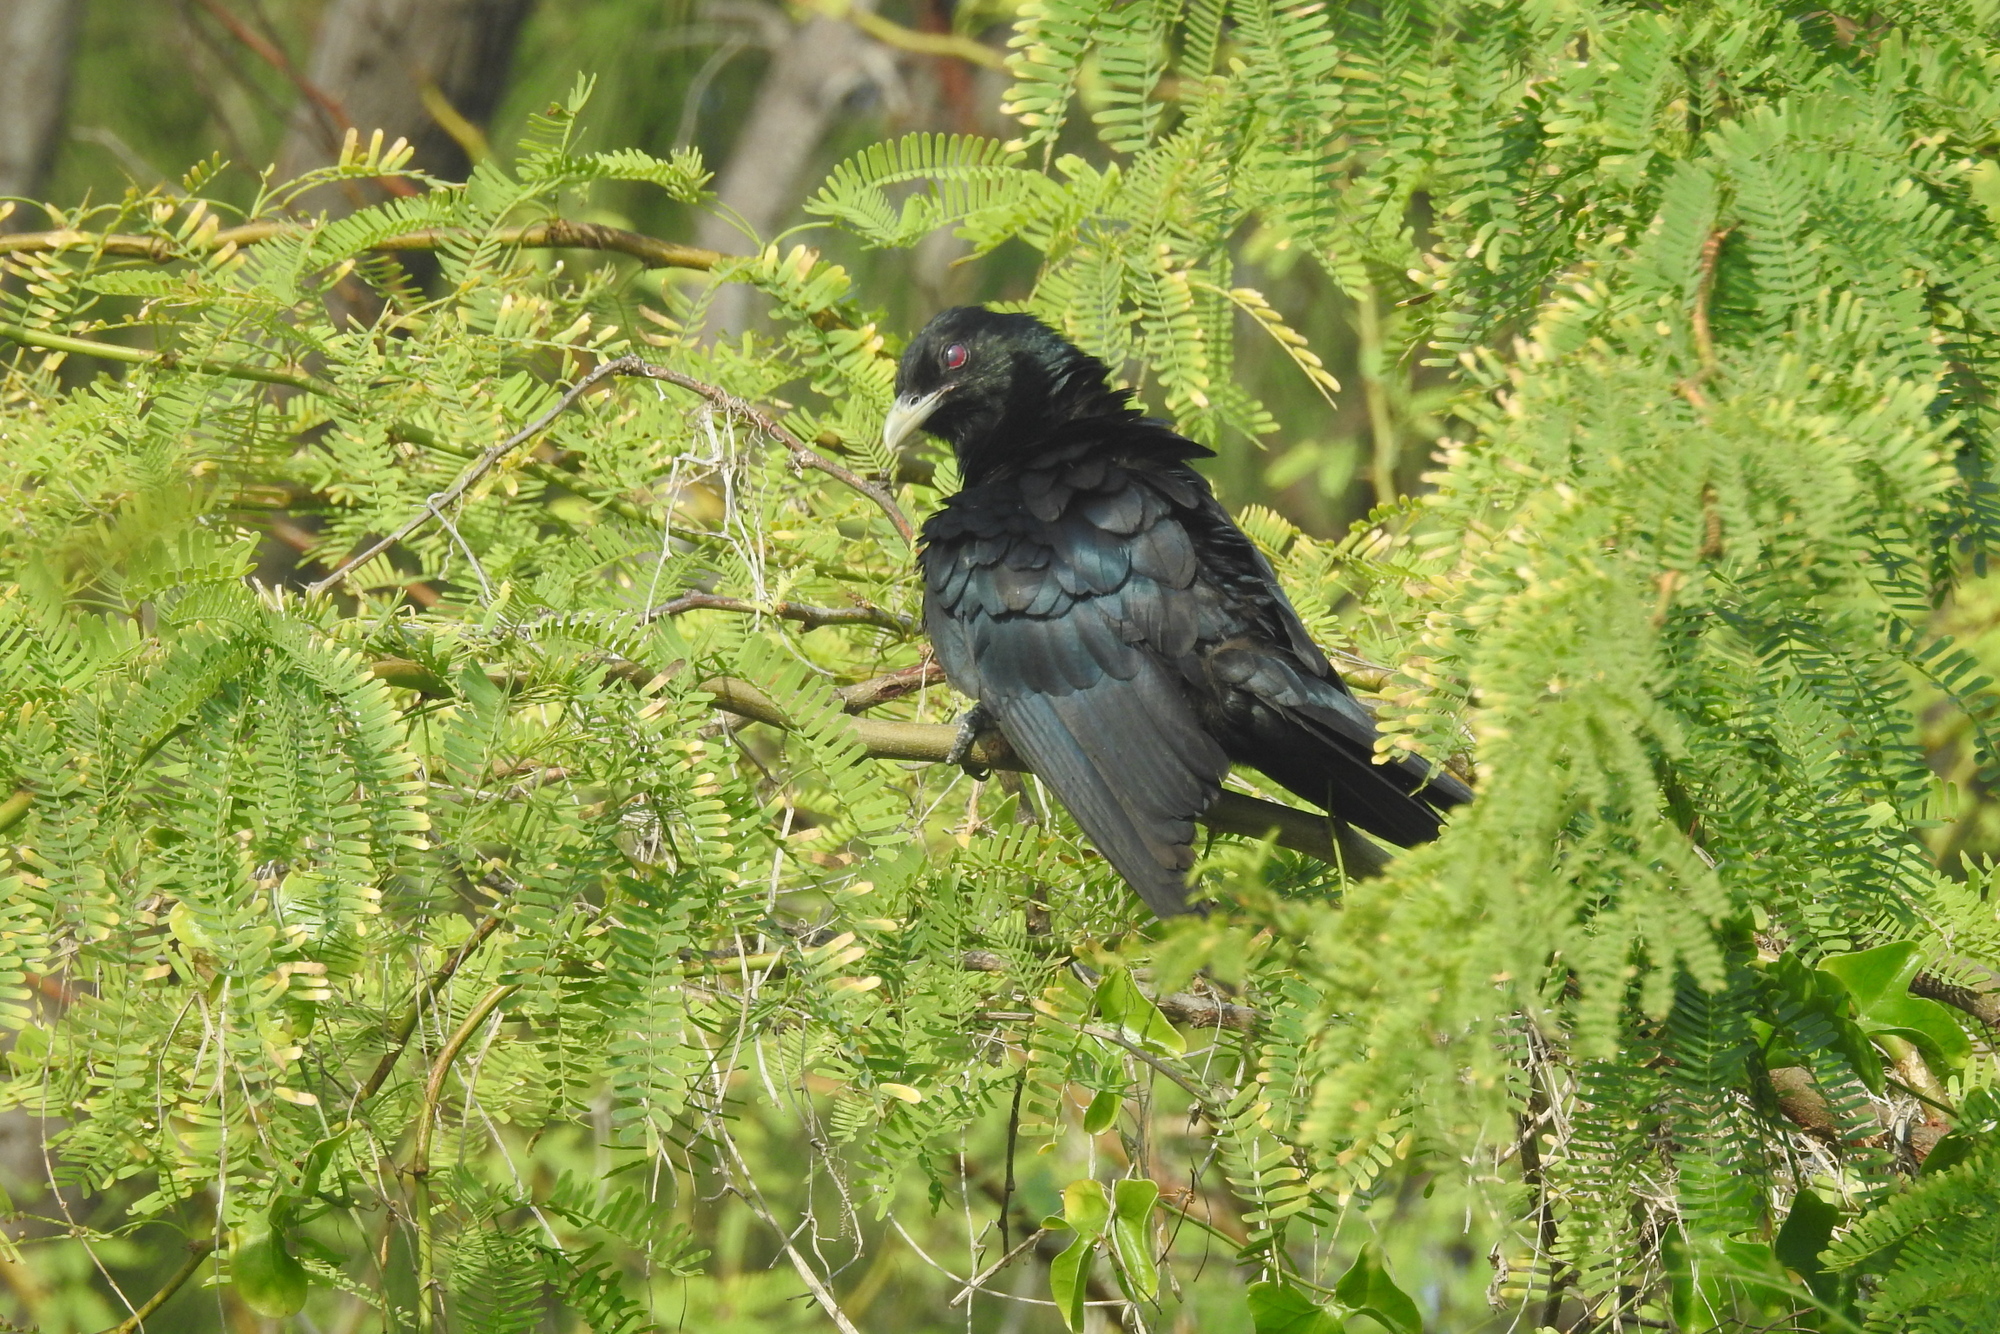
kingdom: Animalia
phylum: Chordata
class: Aves
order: Cuculiformes
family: Cuculidae
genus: Eudynamys
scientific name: Eudynamys scolopaceus
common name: Asian koel
